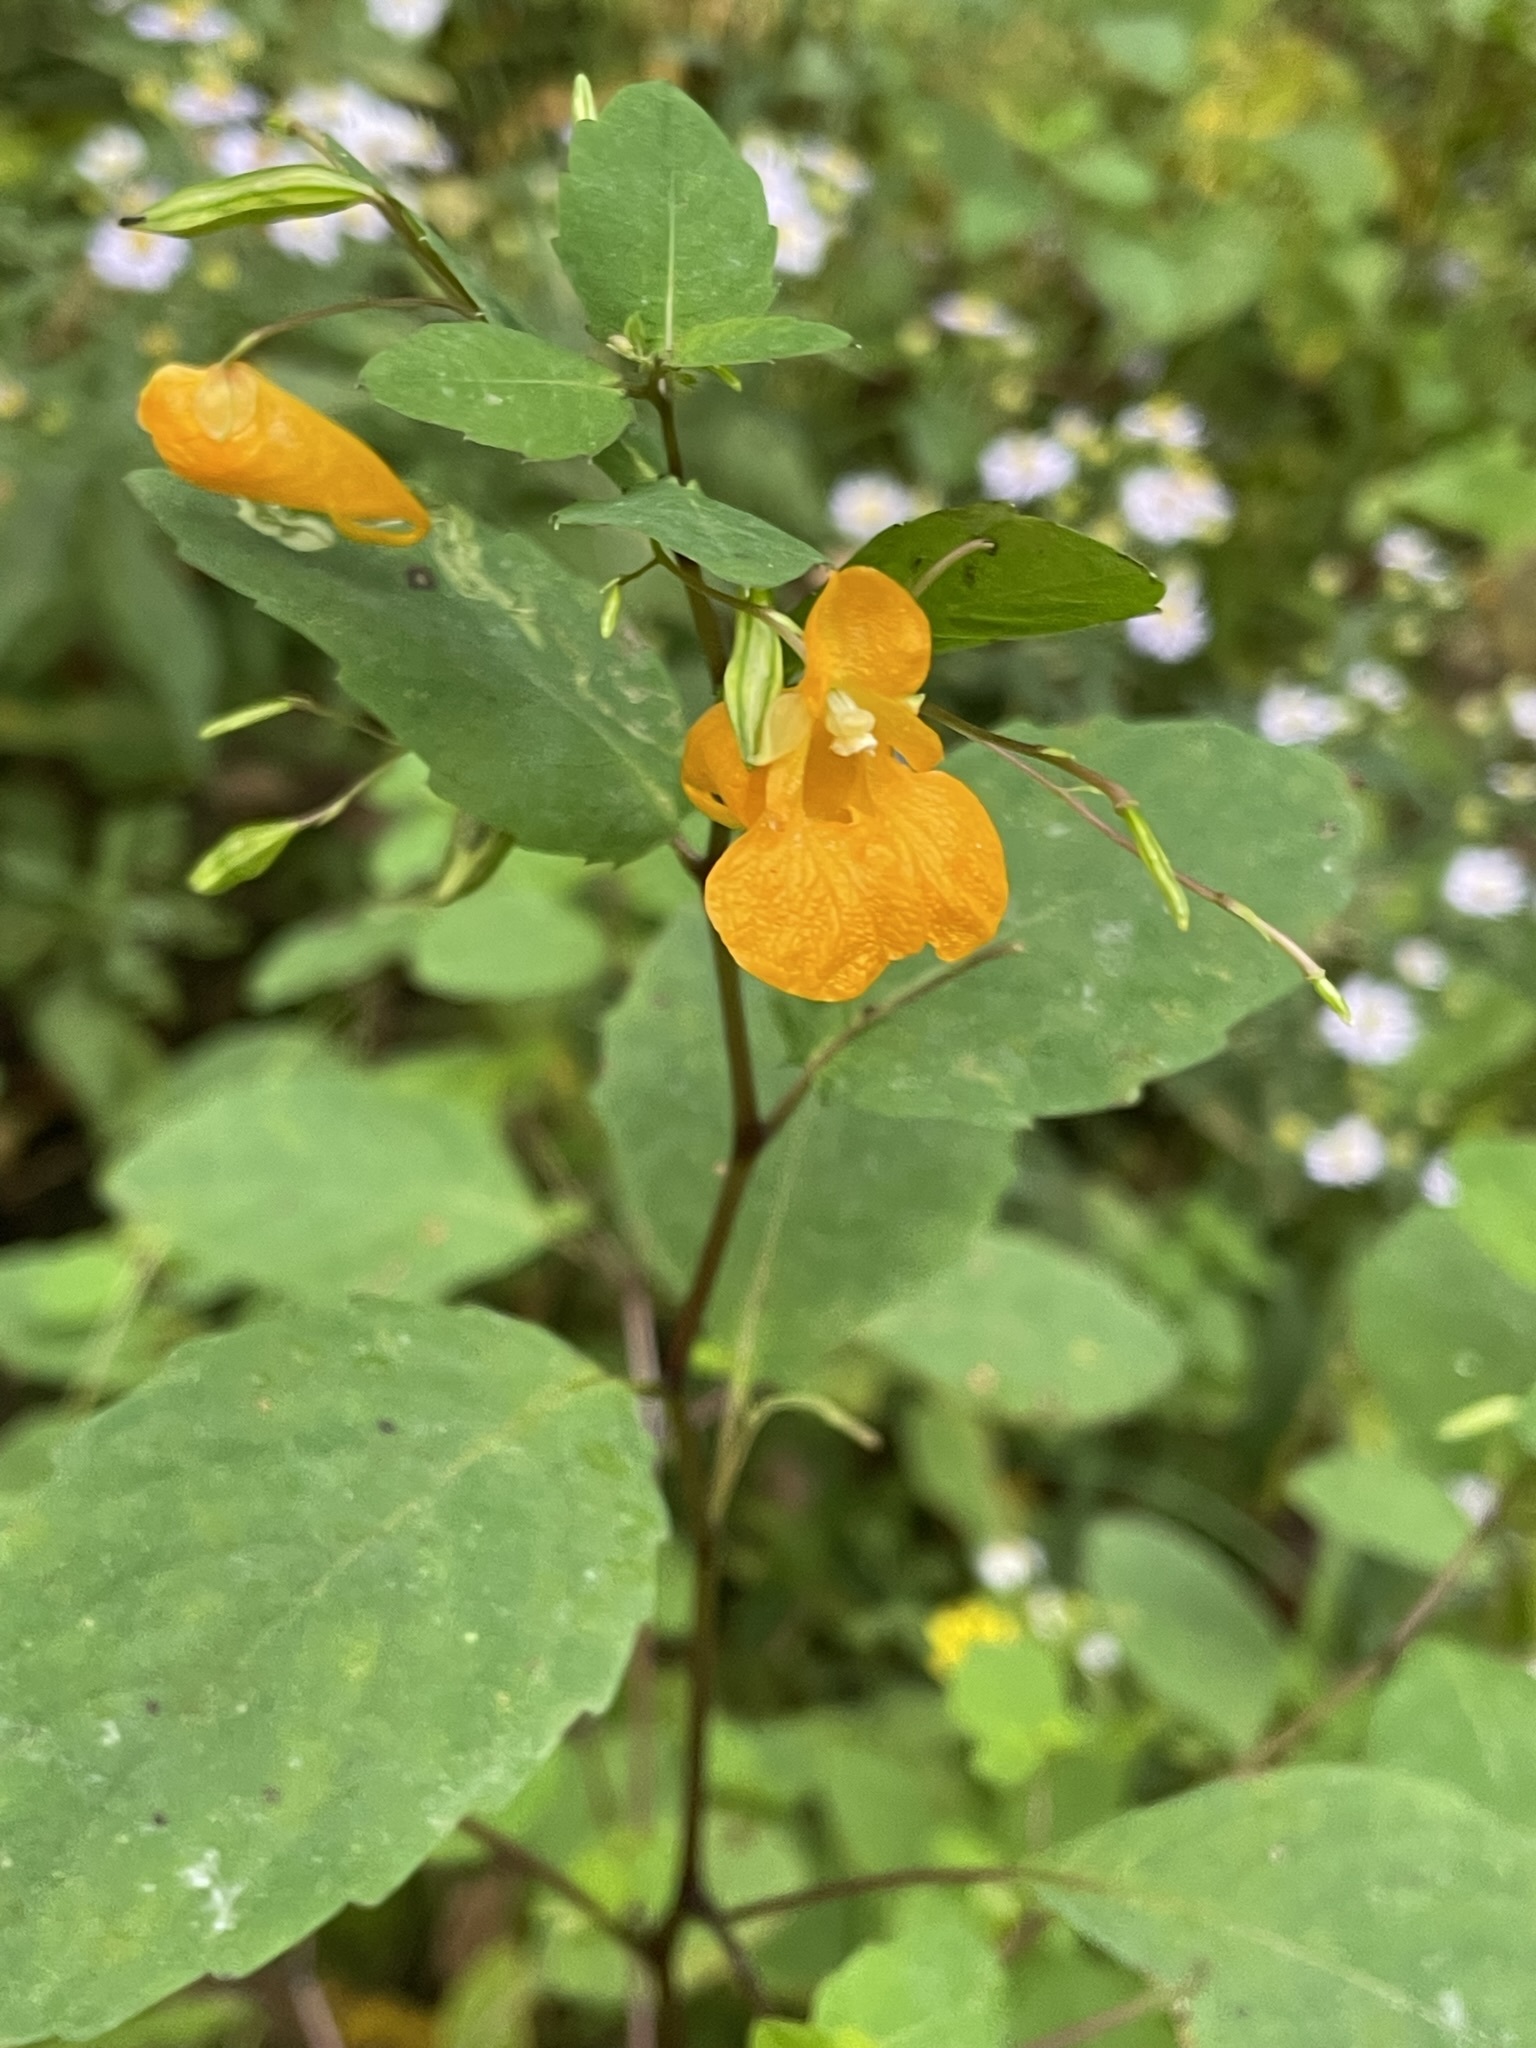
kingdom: Plantae
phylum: Tracheophyta
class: Magnoliopsida
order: Ericales
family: Balsaminaceae
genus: Impatiens
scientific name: Impatiens capensis
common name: Orange balsam
